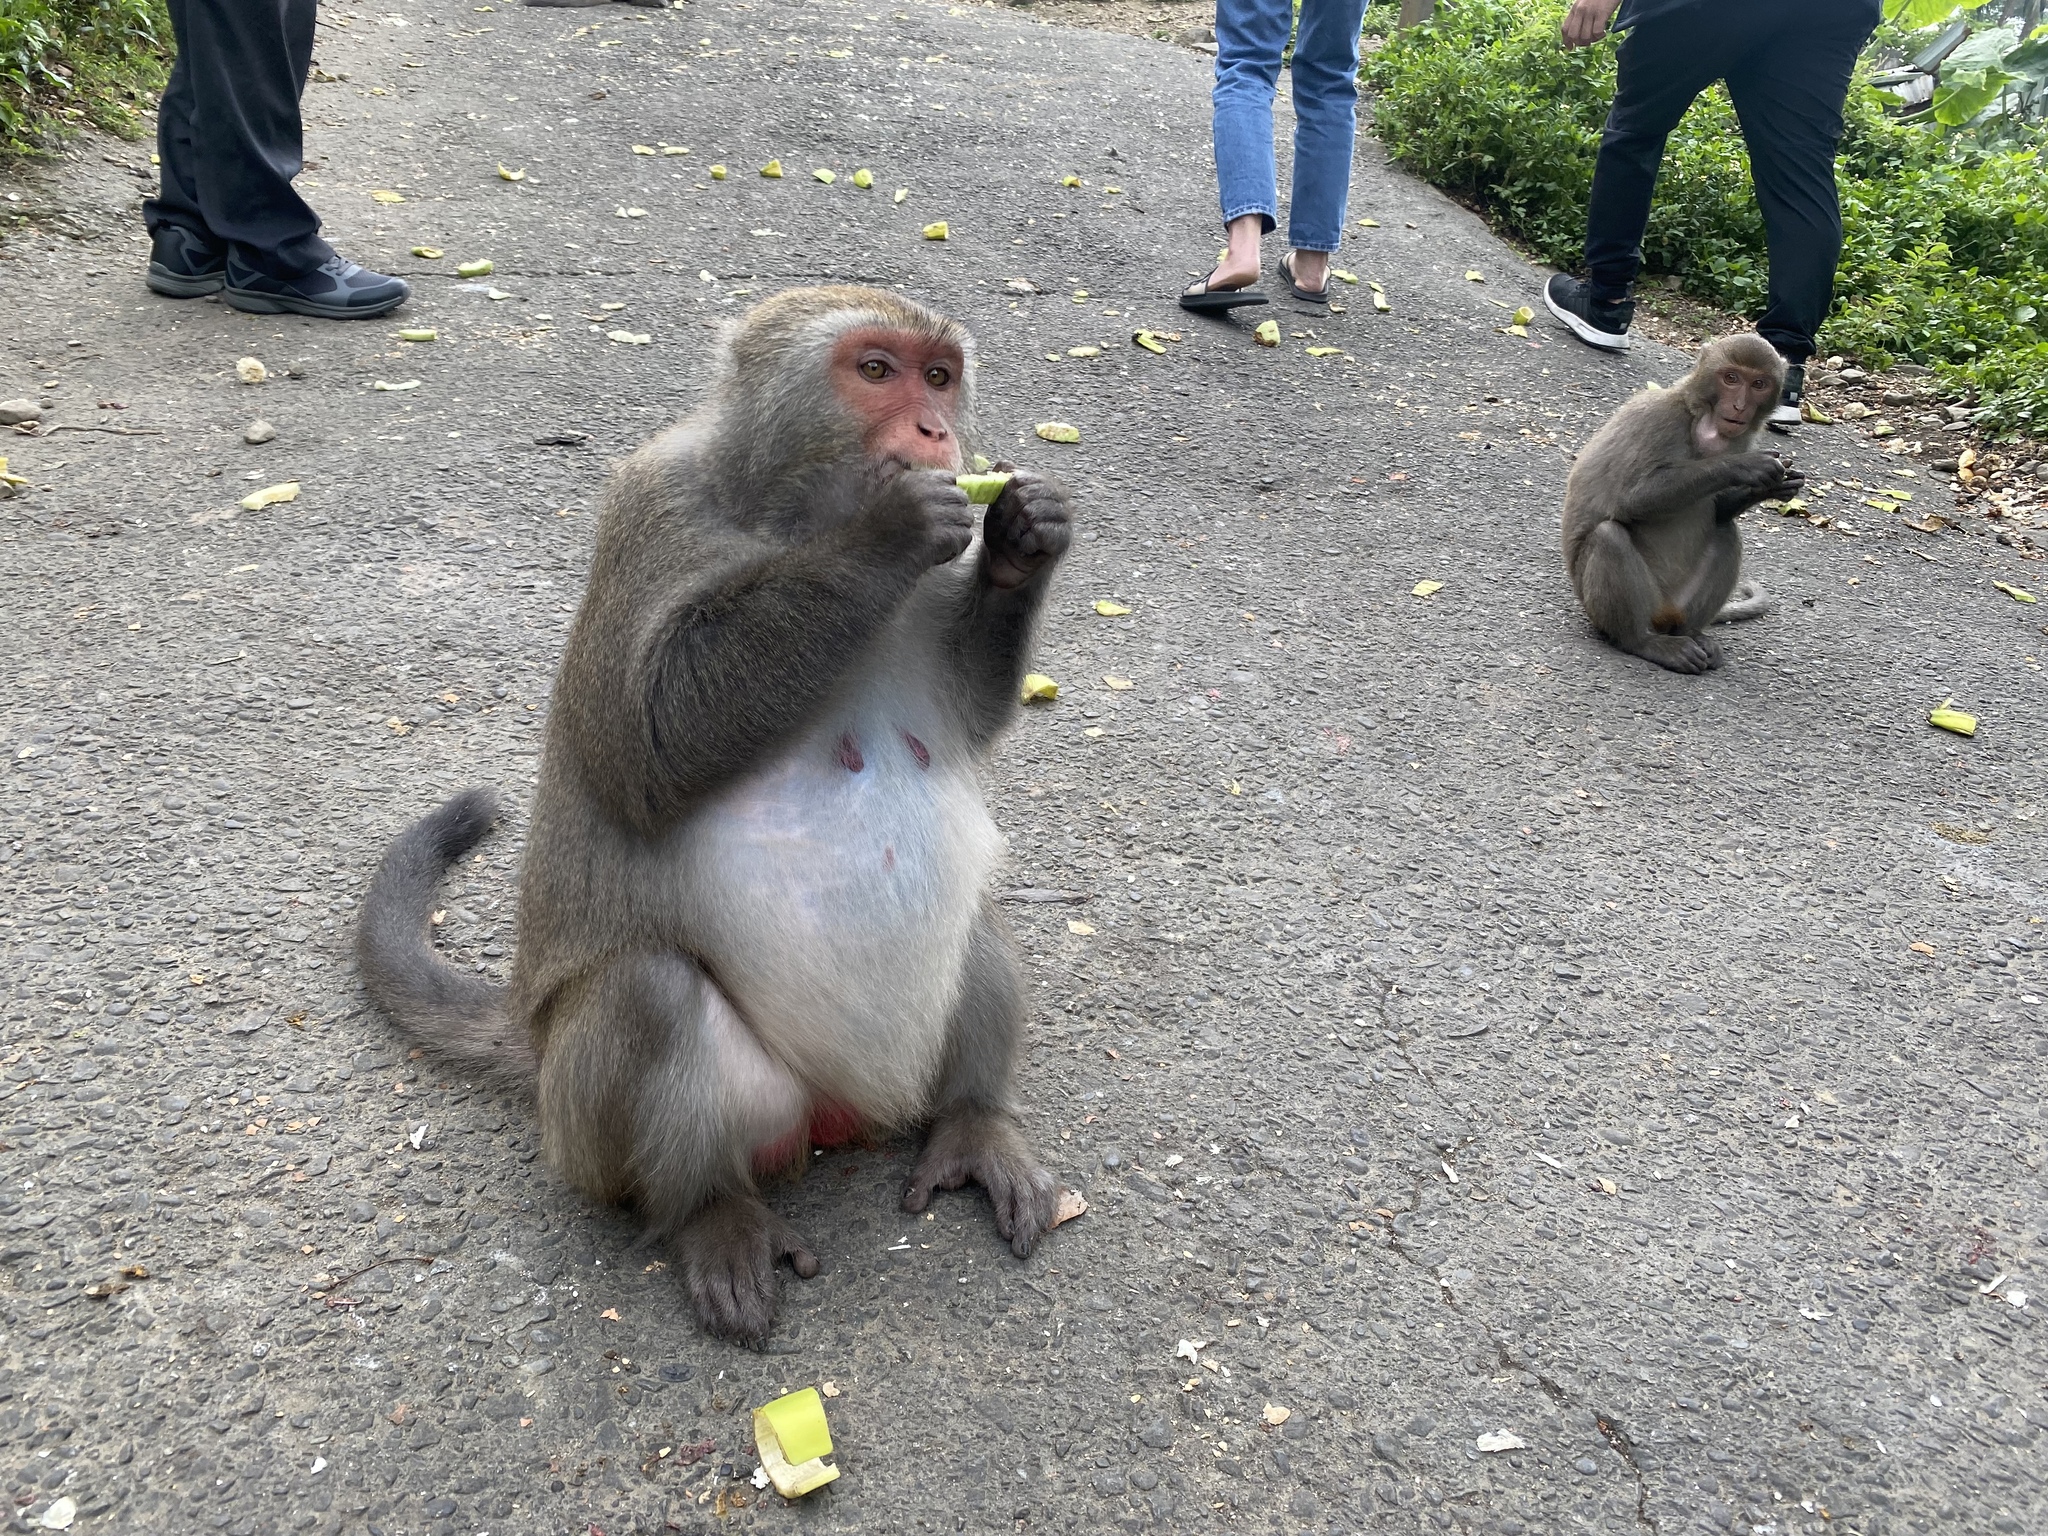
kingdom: Animalia
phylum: Chordata
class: Mammalia
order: Primates
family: Cercopithecidae
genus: Macaca
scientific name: Macaca cyclopis
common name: Formosan rock macaque
